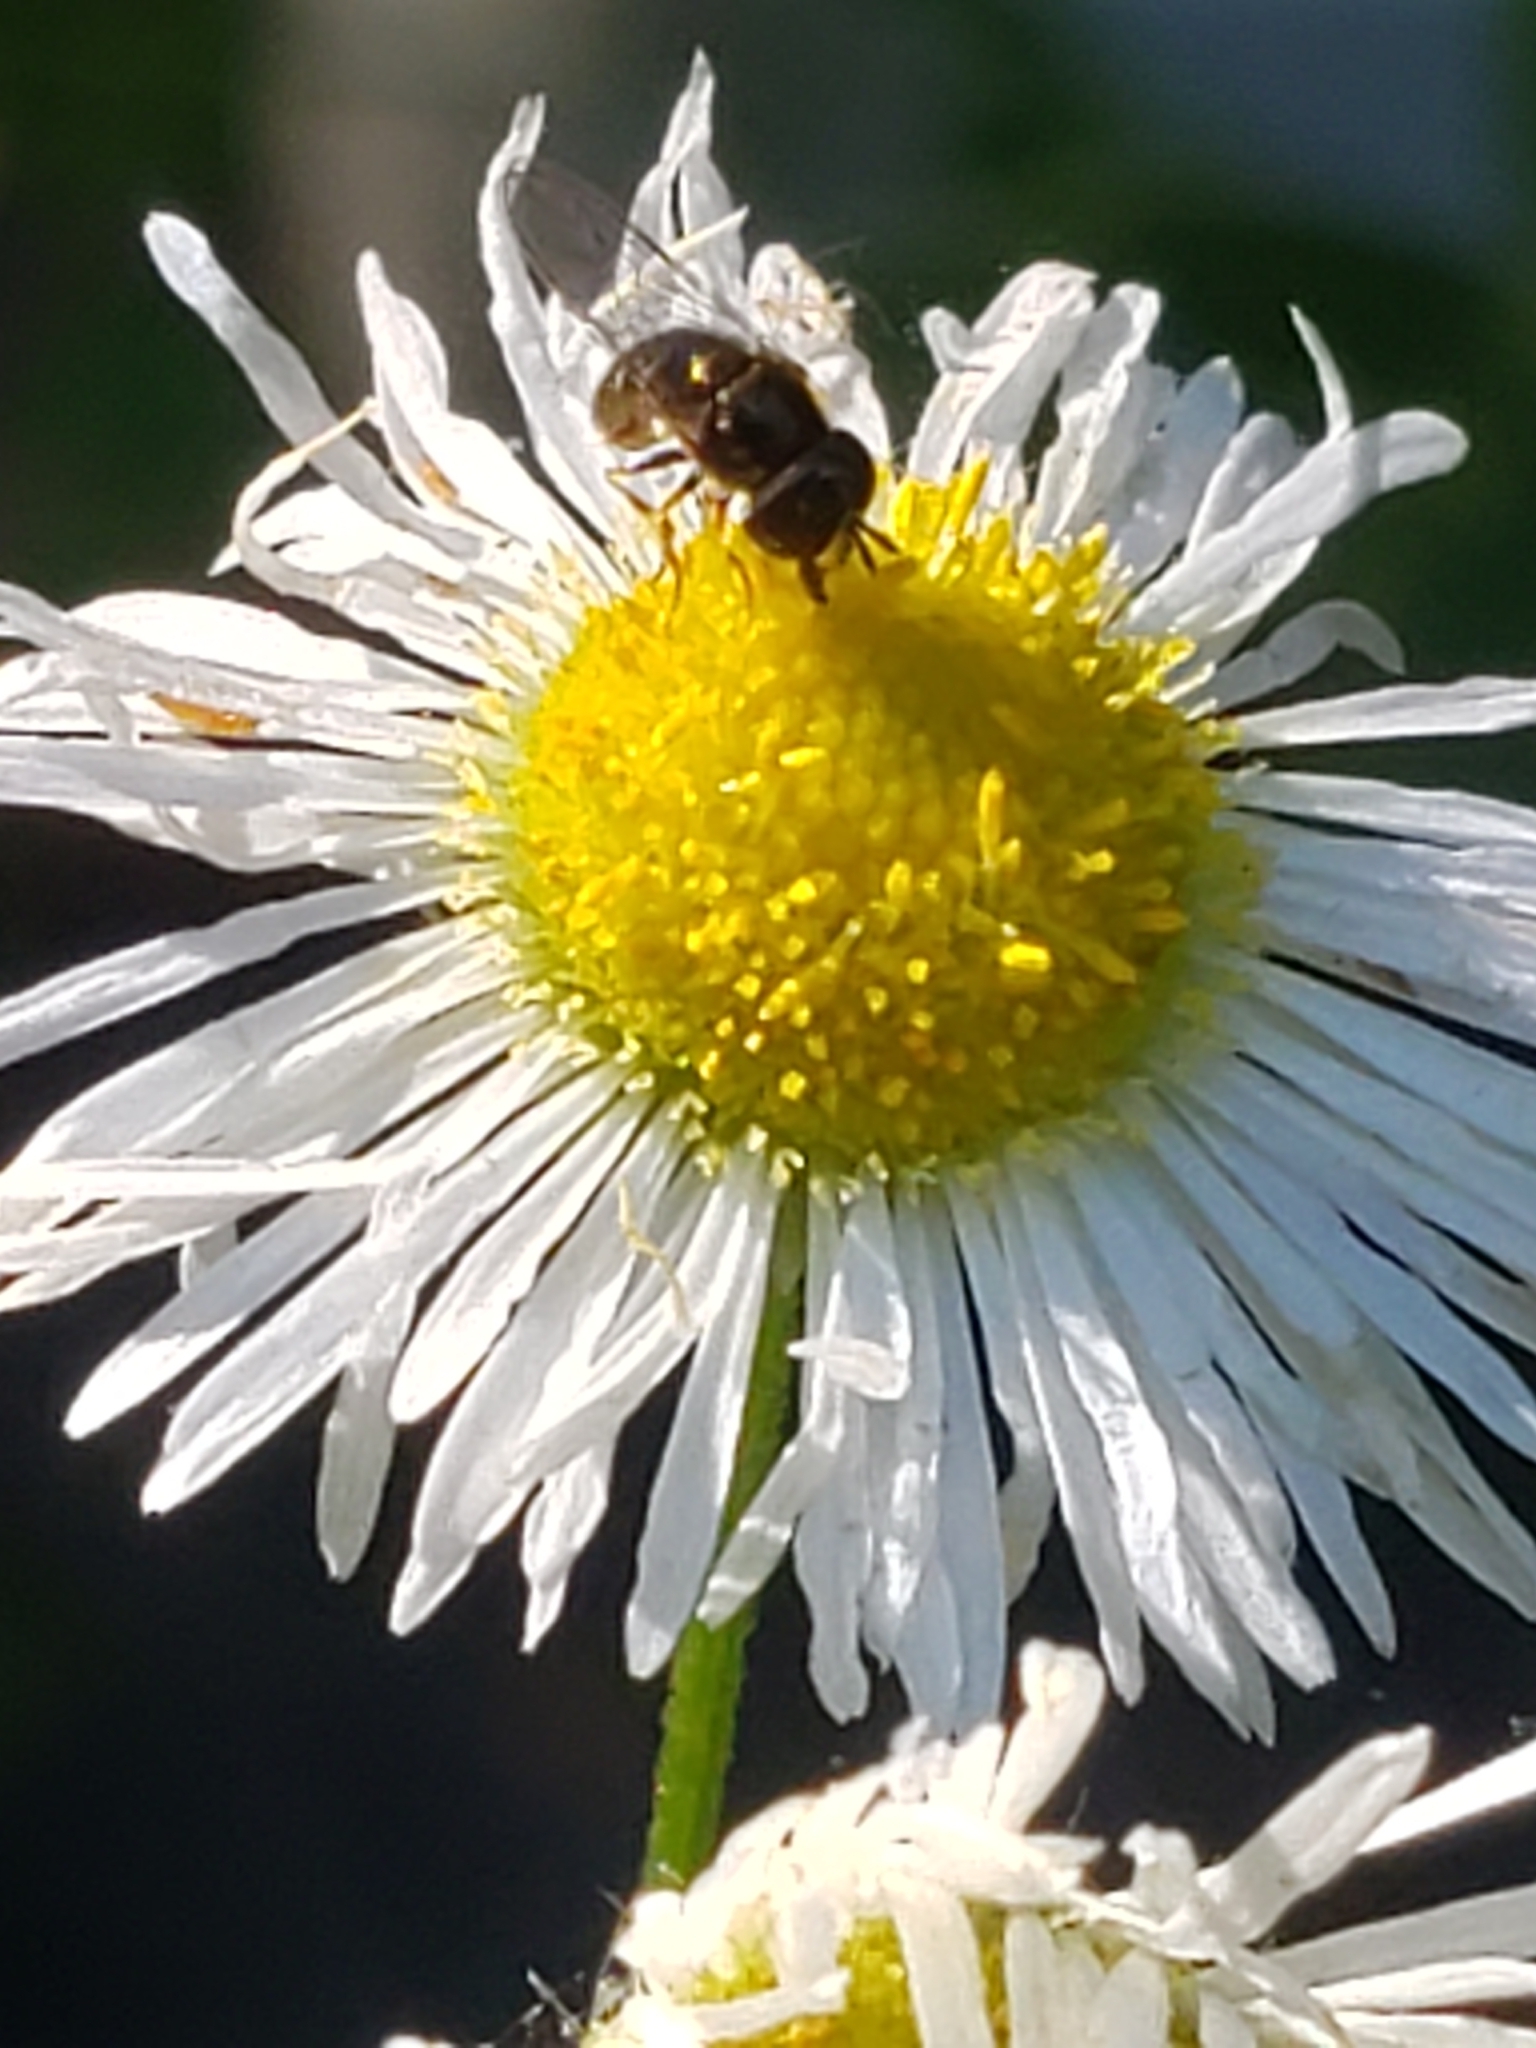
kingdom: Animalia
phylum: Arthropoda
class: Insecta
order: Diptera
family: Syrphidae
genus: Paragus
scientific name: Paragus haemorrhous
